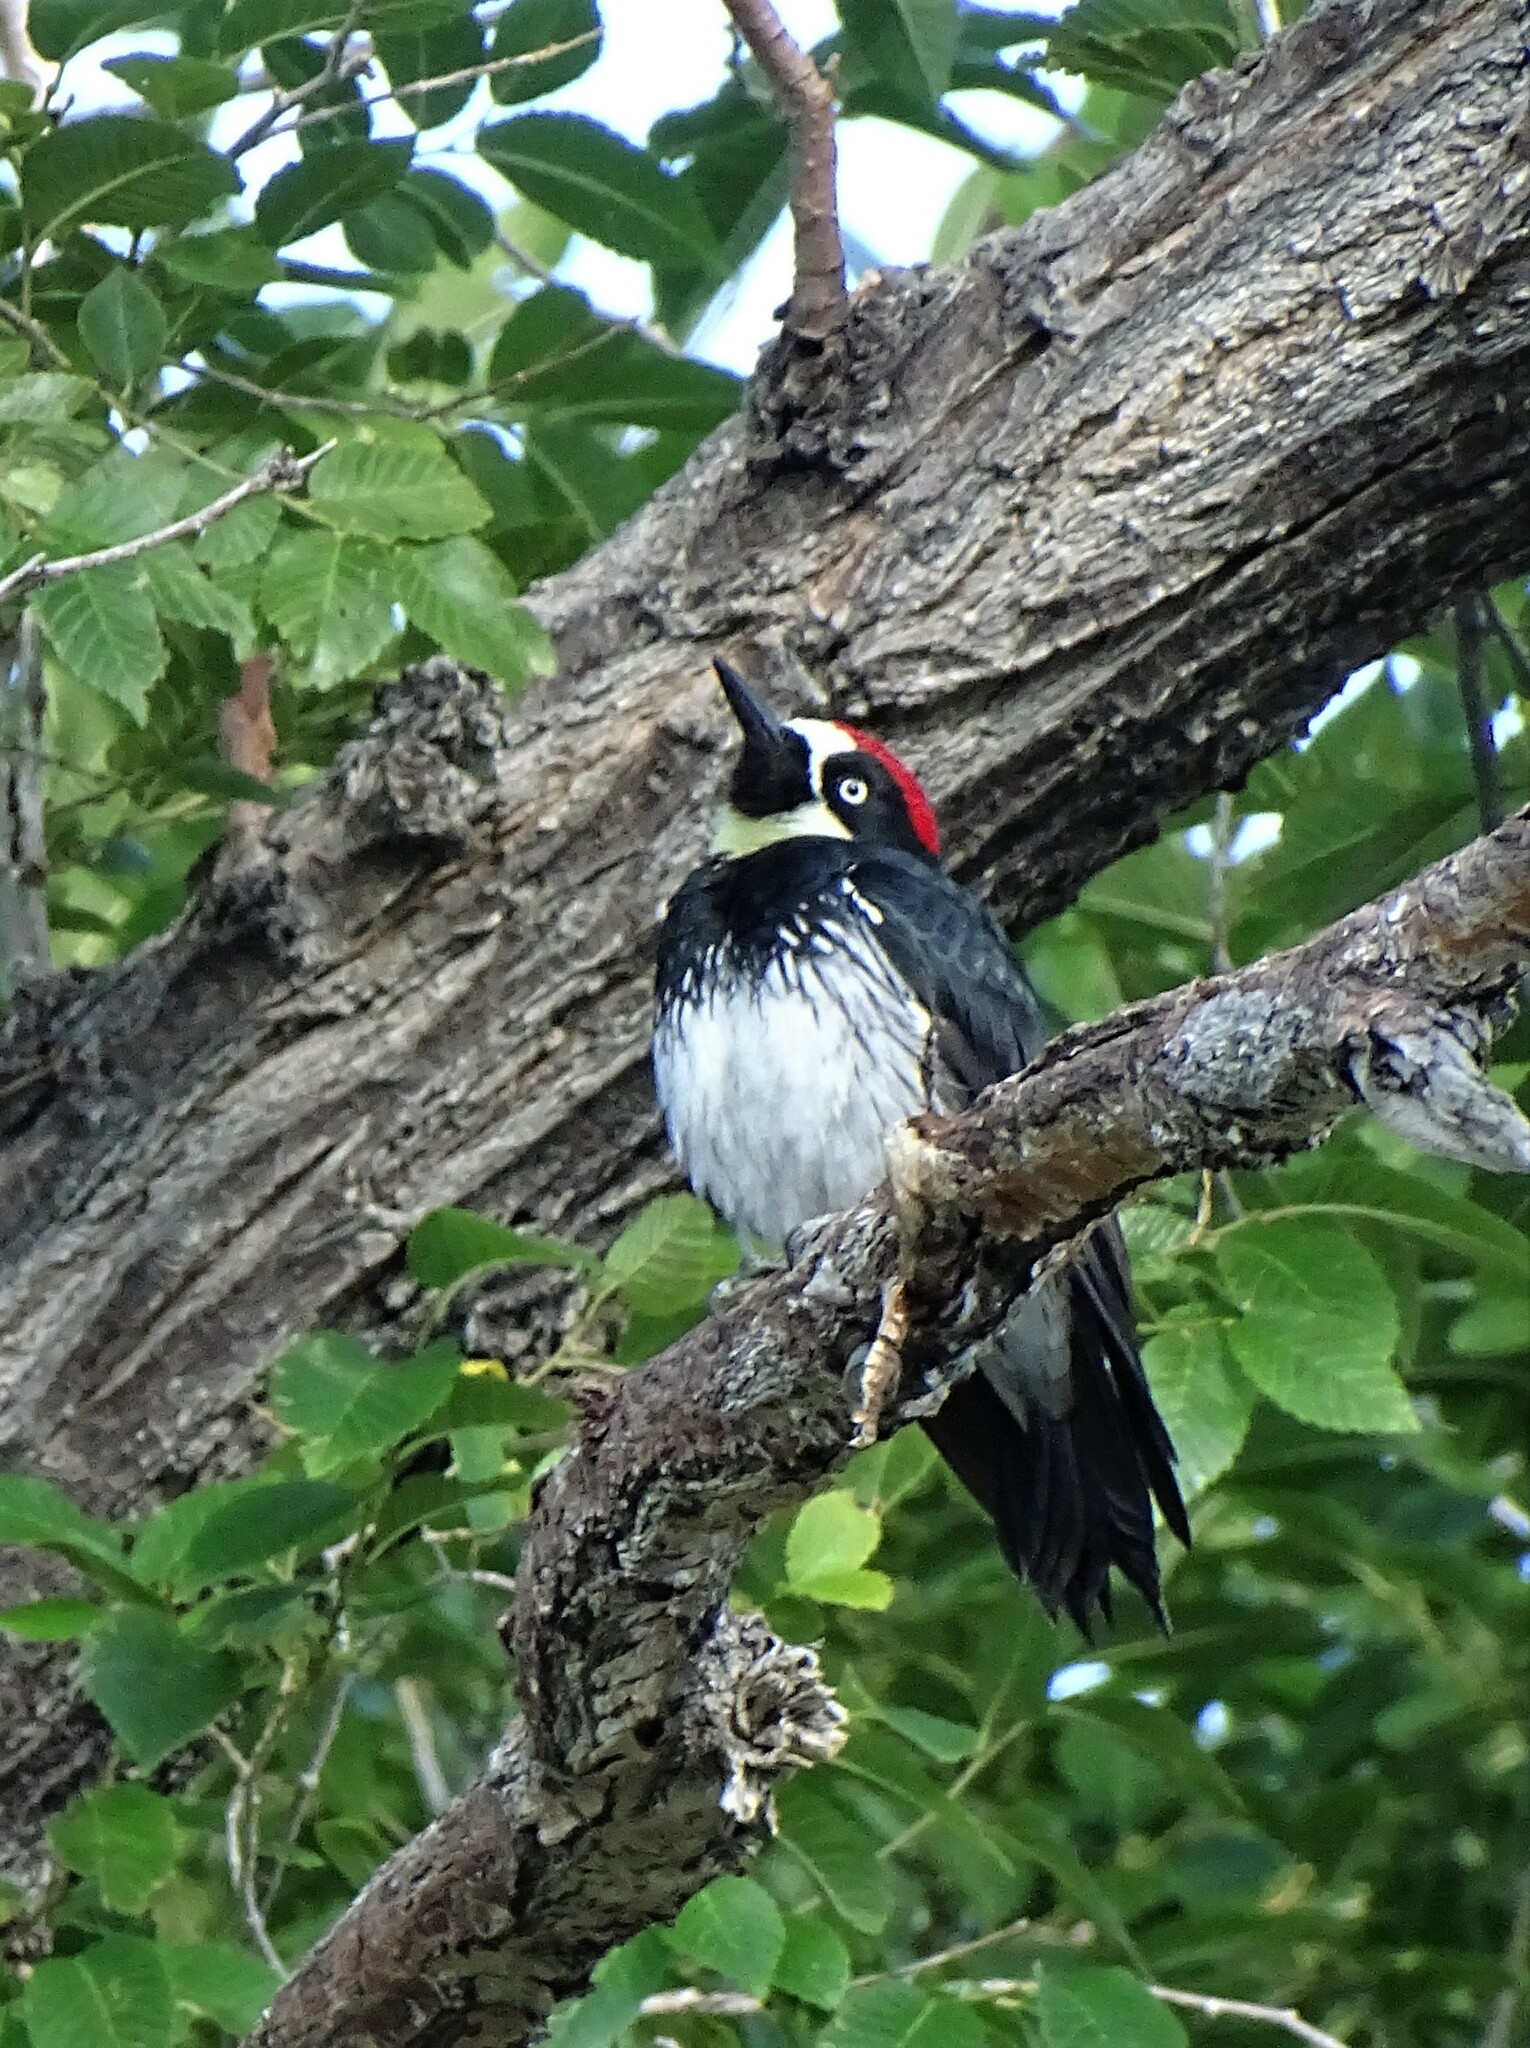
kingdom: Animalia
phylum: Chordata
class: Aves
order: Piciformes
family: Picidae
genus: Melanerpes
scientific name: Melanerpes formicivorus
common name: Acorn woodpecker
